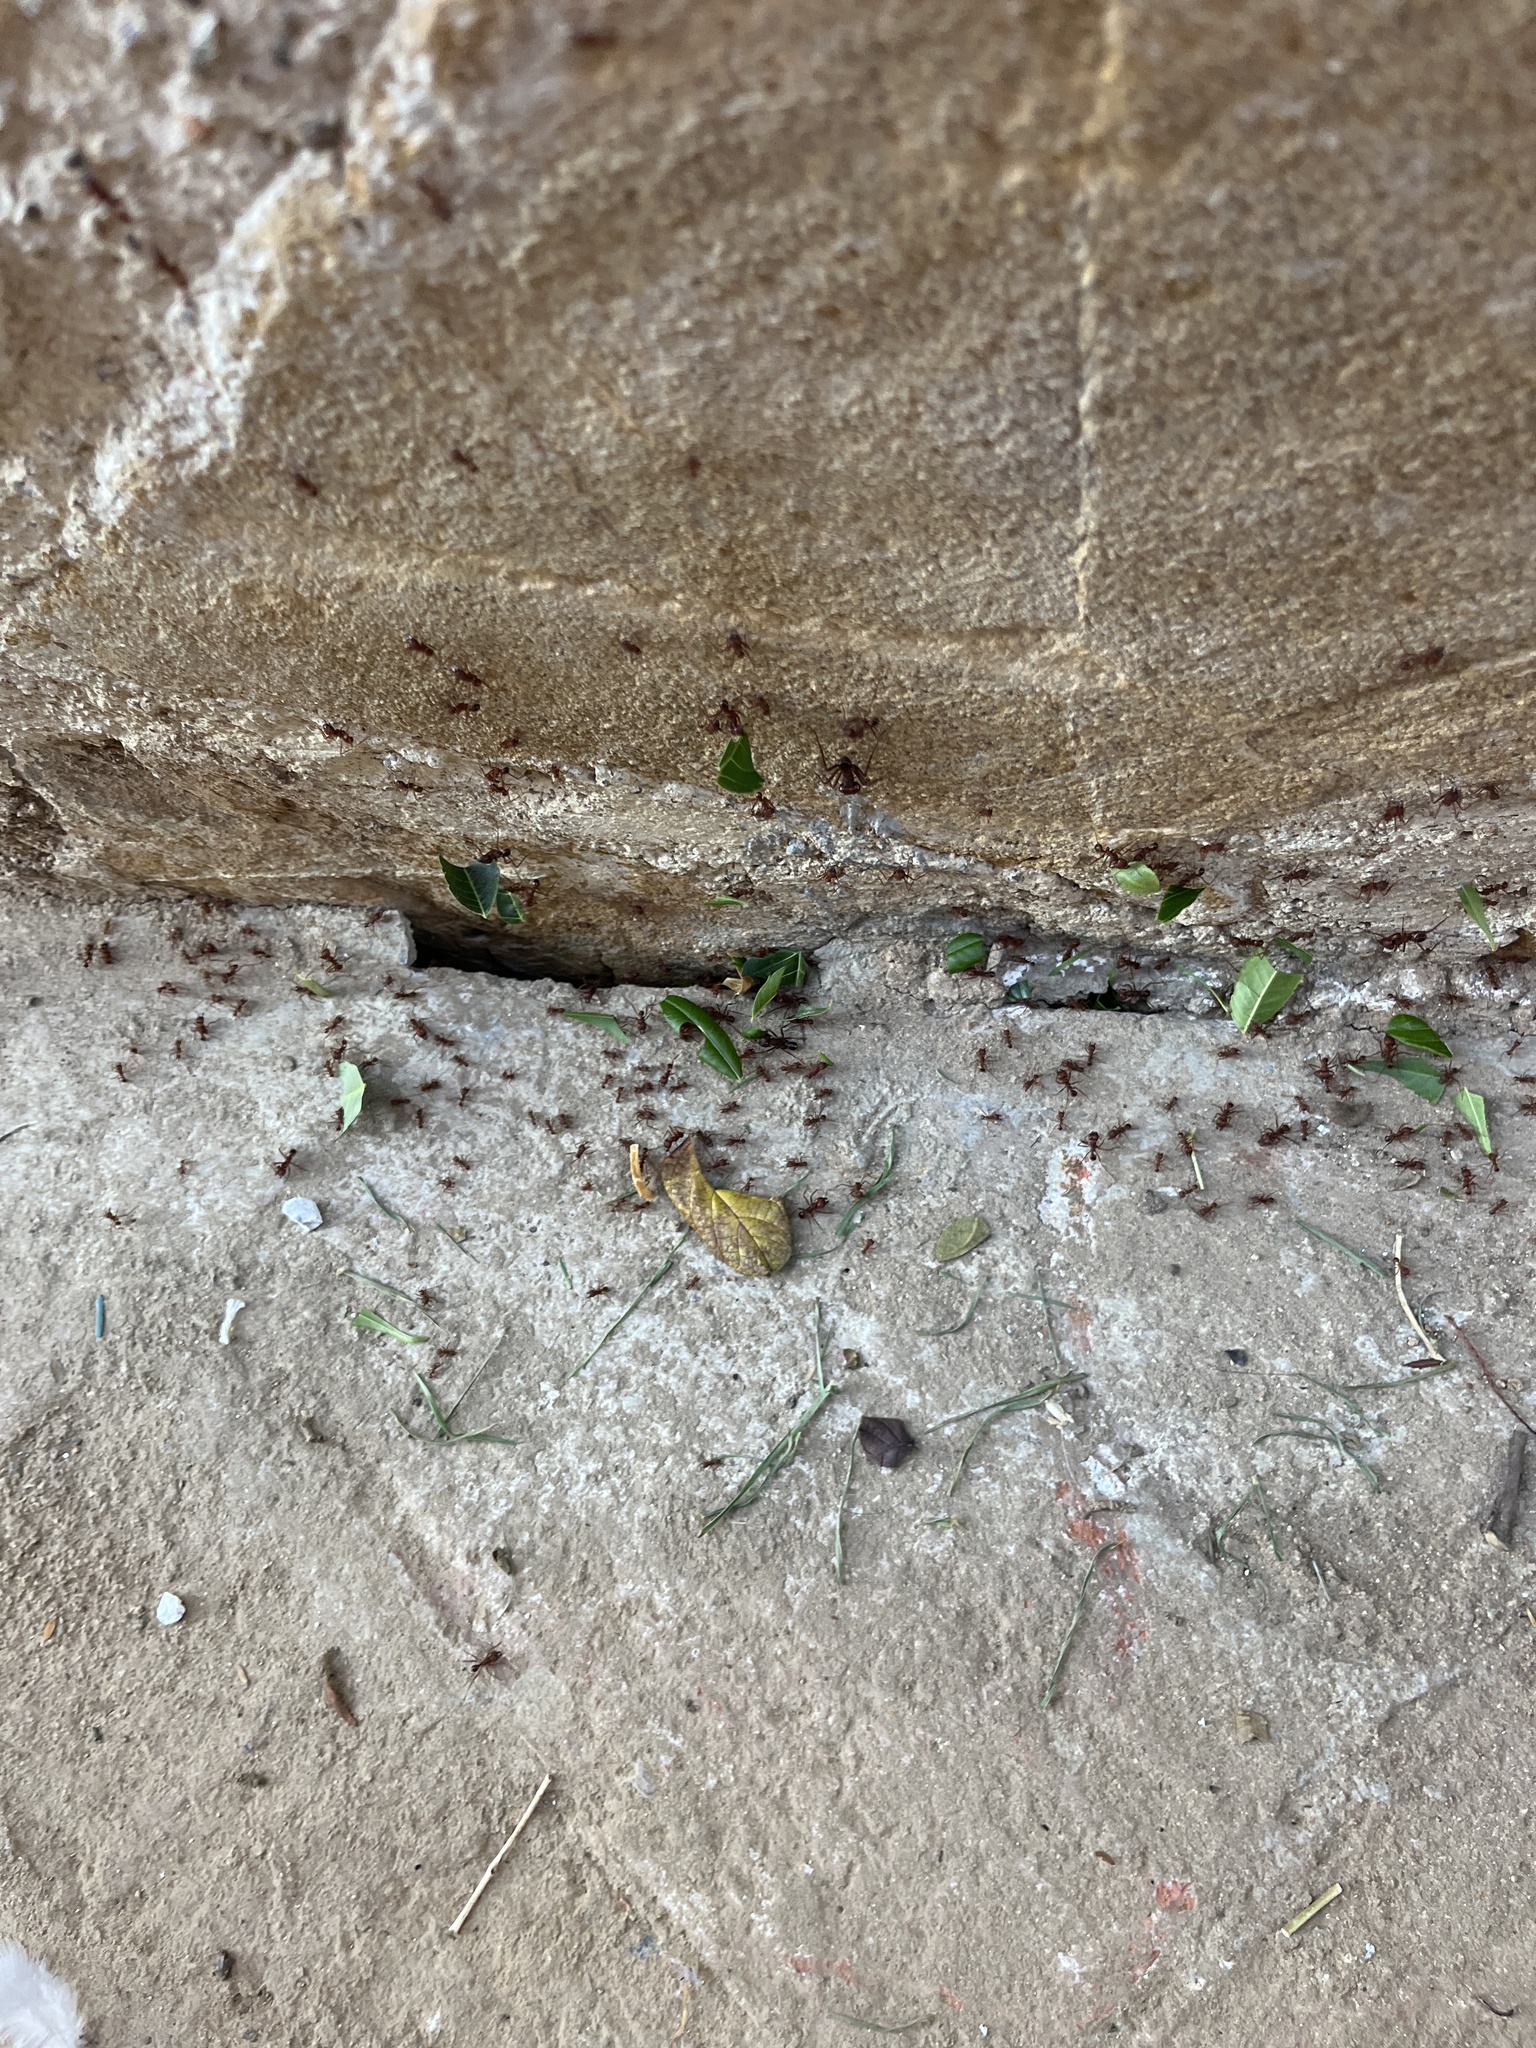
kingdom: Animalia
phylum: Arthropoda
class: Insecta
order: Hymenoptera
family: Formicidae
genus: Atta
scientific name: Atta mexicana
